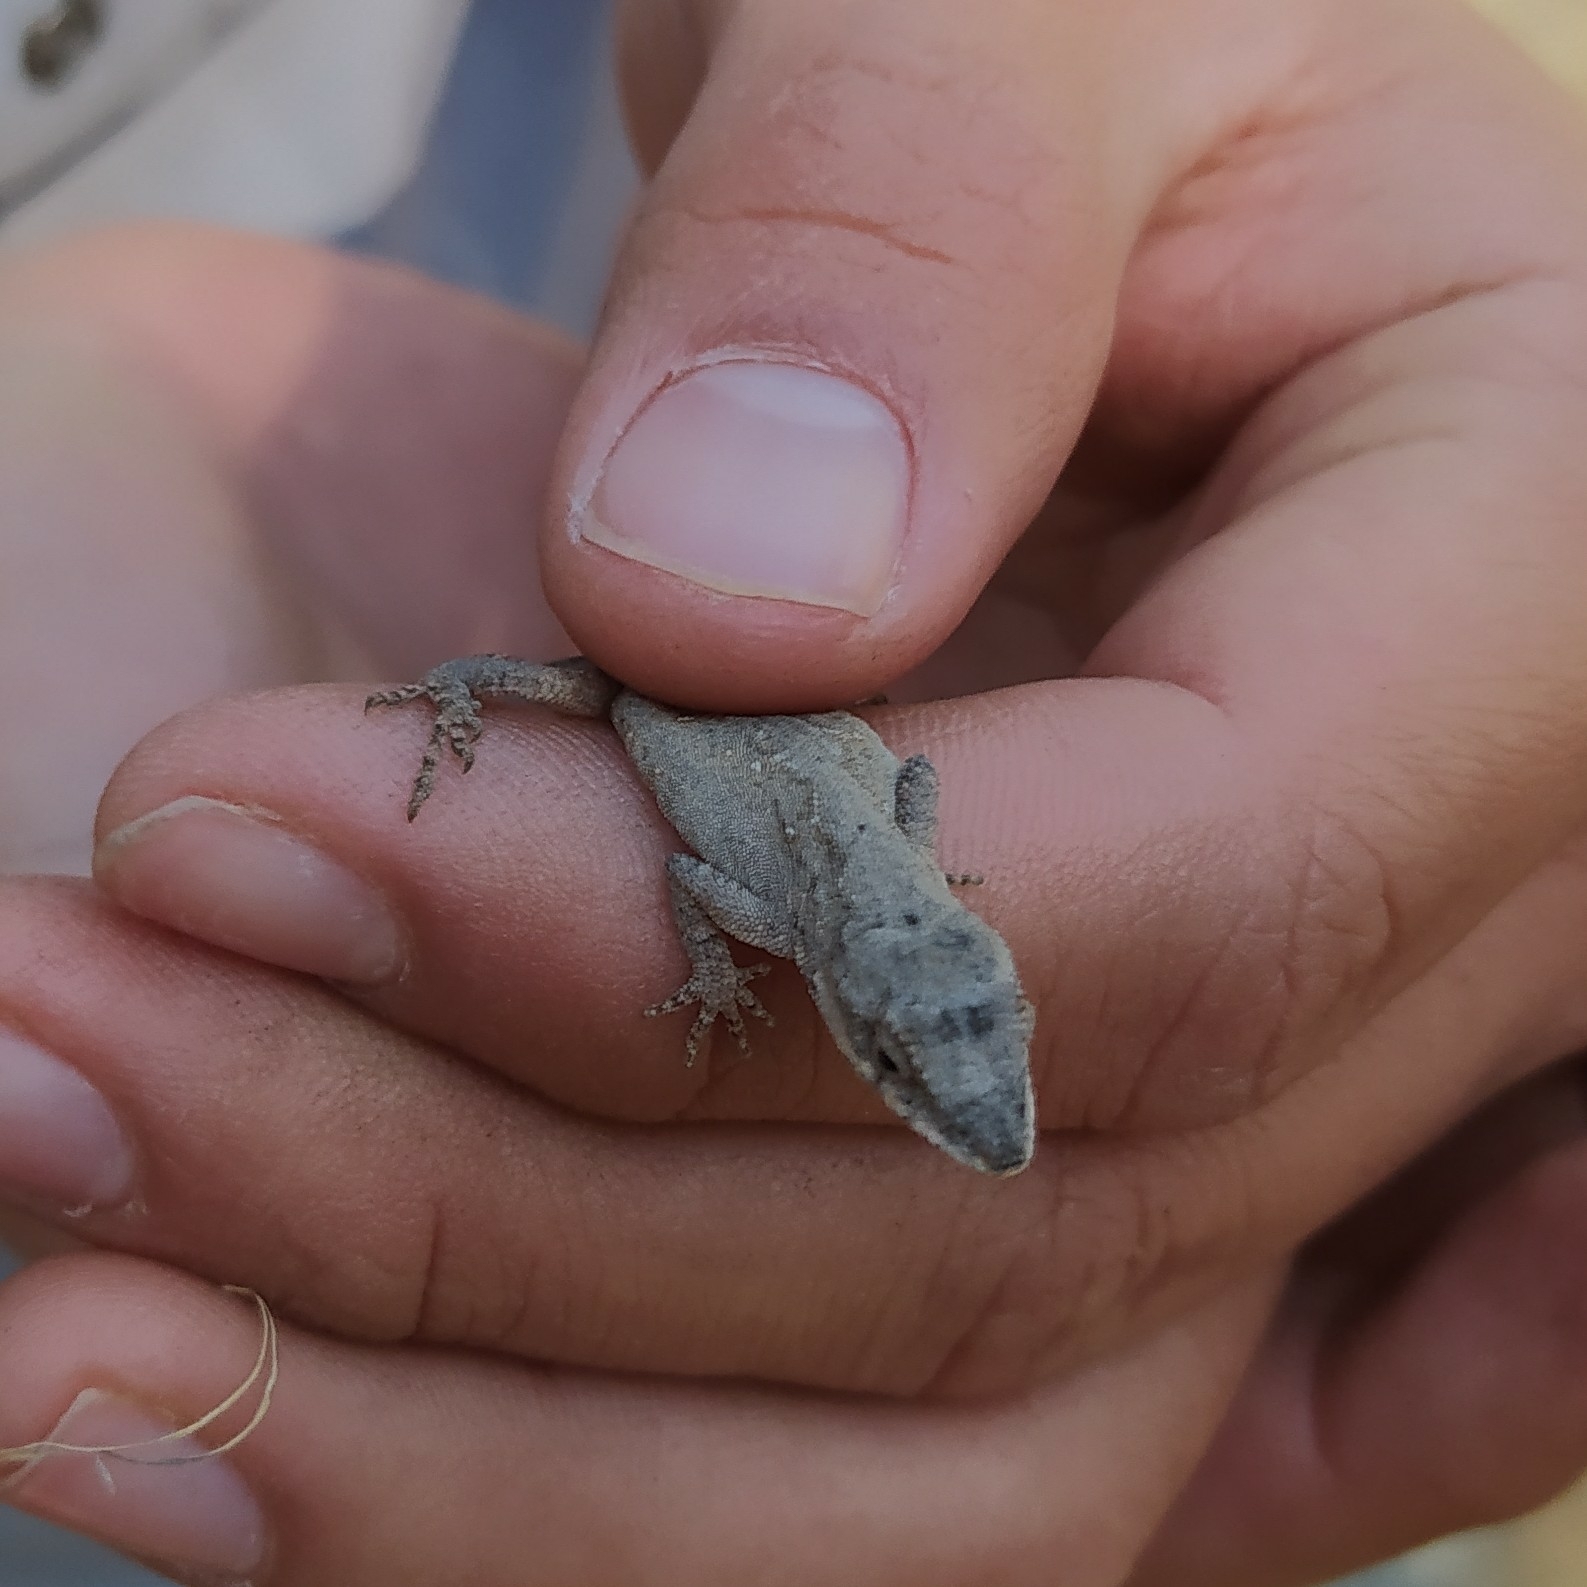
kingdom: Animalia
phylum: Chordata
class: Squamata
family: Dactyloidae
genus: Anolis
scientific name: Anolis nebulosus
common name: Clouded anole
